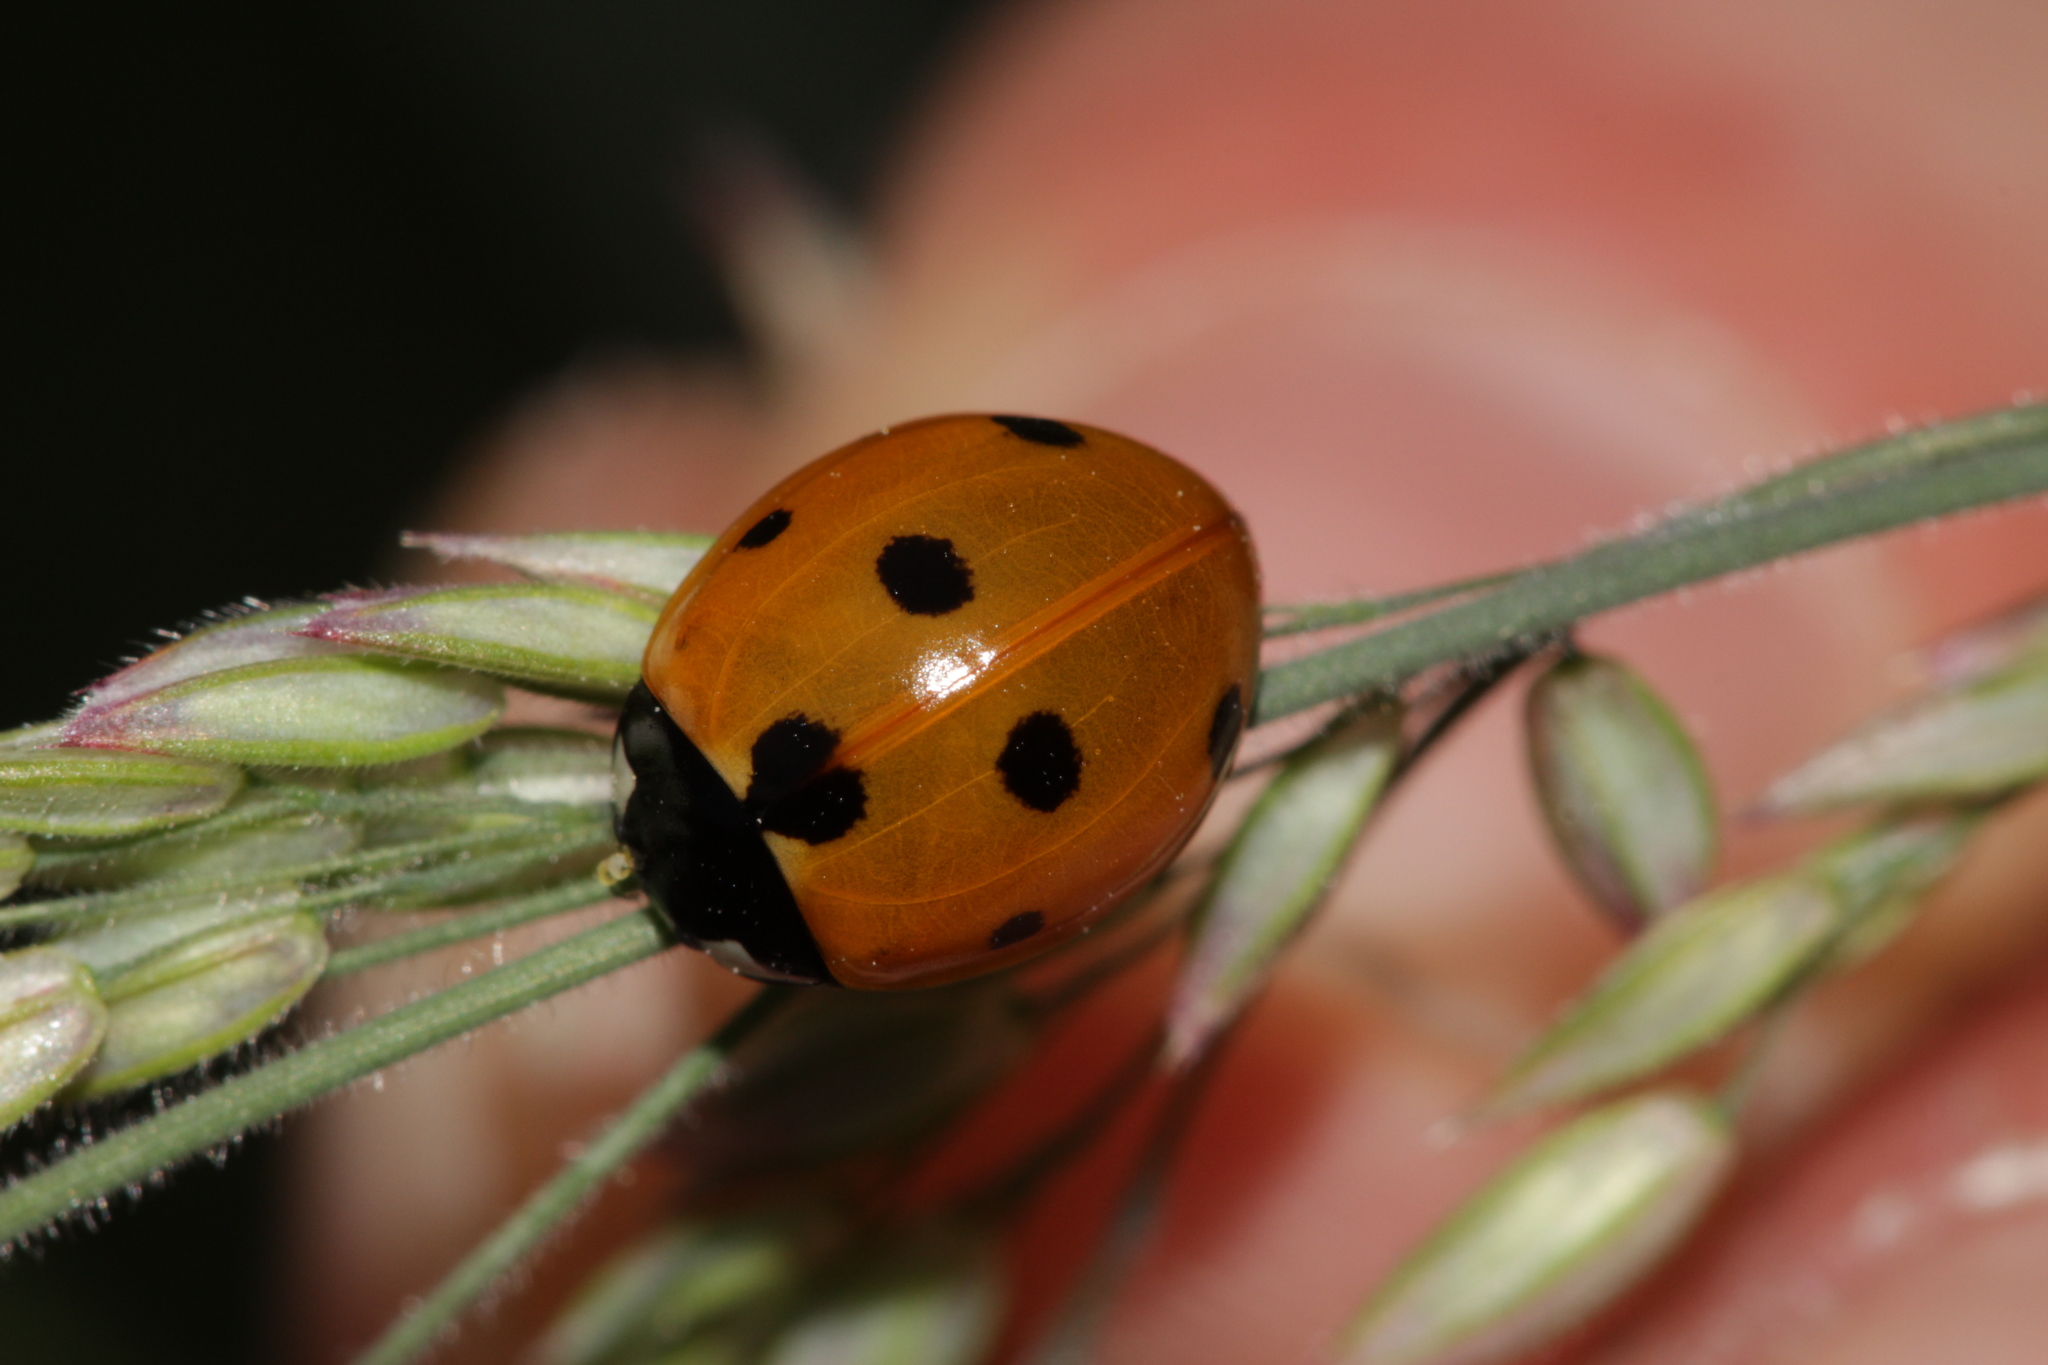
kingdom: Animalia
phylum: Arthropoda
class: Insecta
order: Coleoptera
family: Coccinellidae
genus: Coccinella
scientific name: Coccinella septempunctata
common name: Sevenspotted lady beetle
